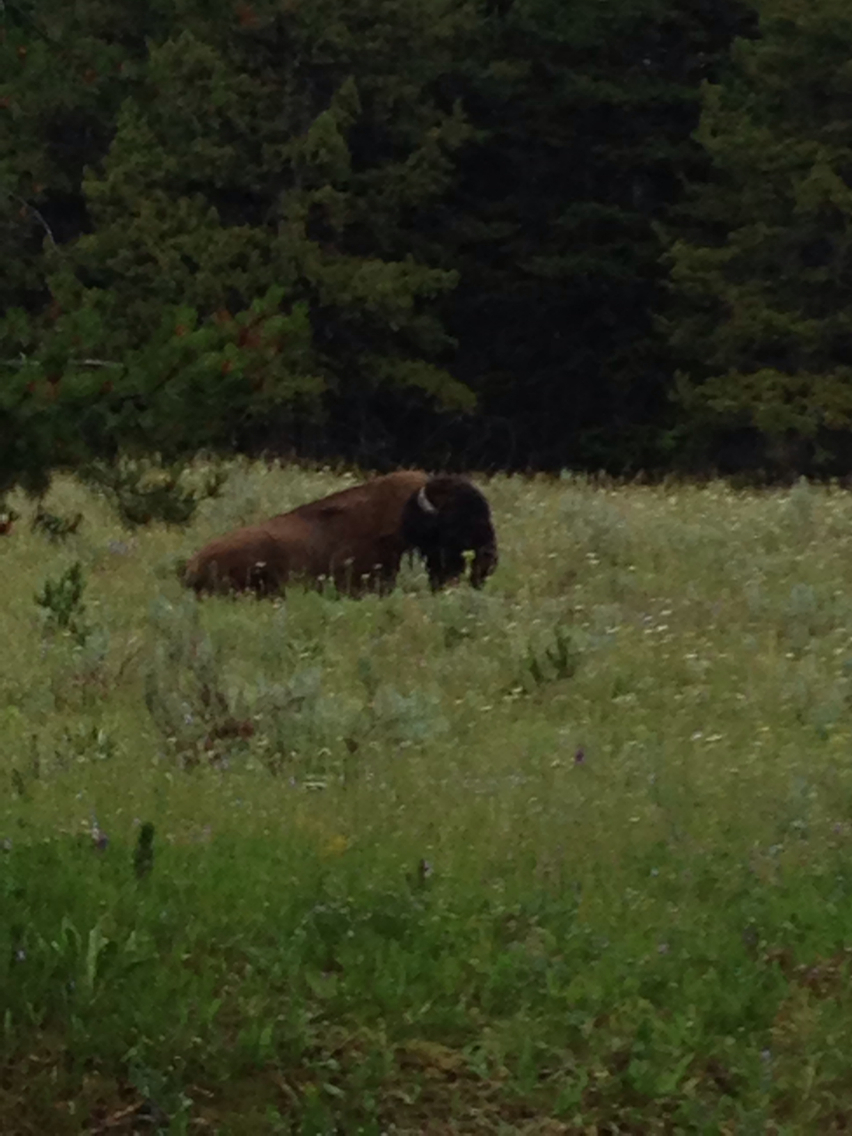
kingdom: Animalia
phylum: Chordata
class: Mammalia
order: Artiodactyla
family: Bovidae
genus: Bison
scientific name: Bison bison
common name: American bison
